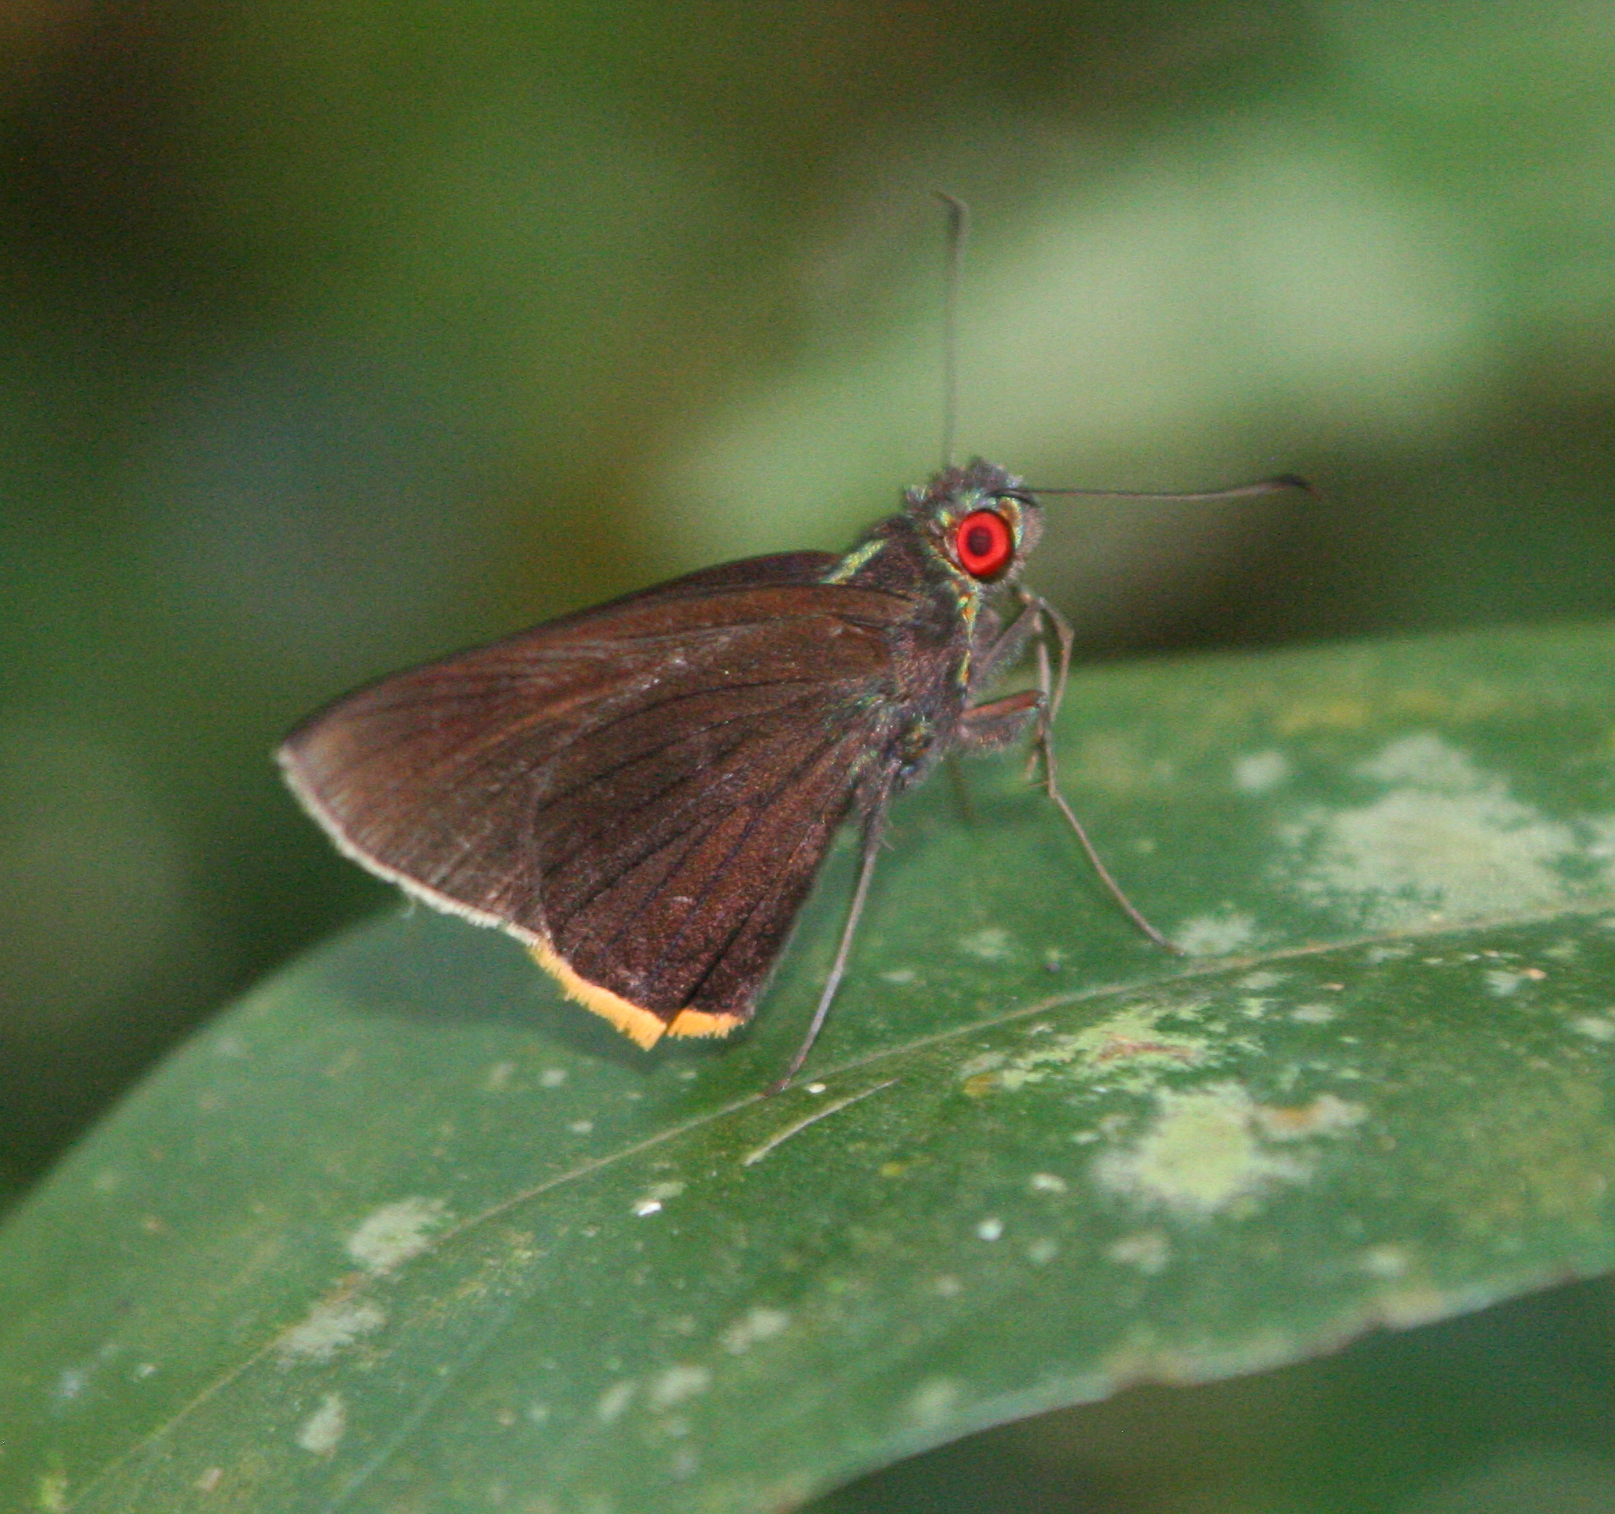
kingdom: Animalia
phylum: Arthropoda
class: Insecta
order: Lepidoptera
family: Hesperiidae
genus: Matapa
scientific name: Matapa sasivarna
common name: Black-veined redeye
